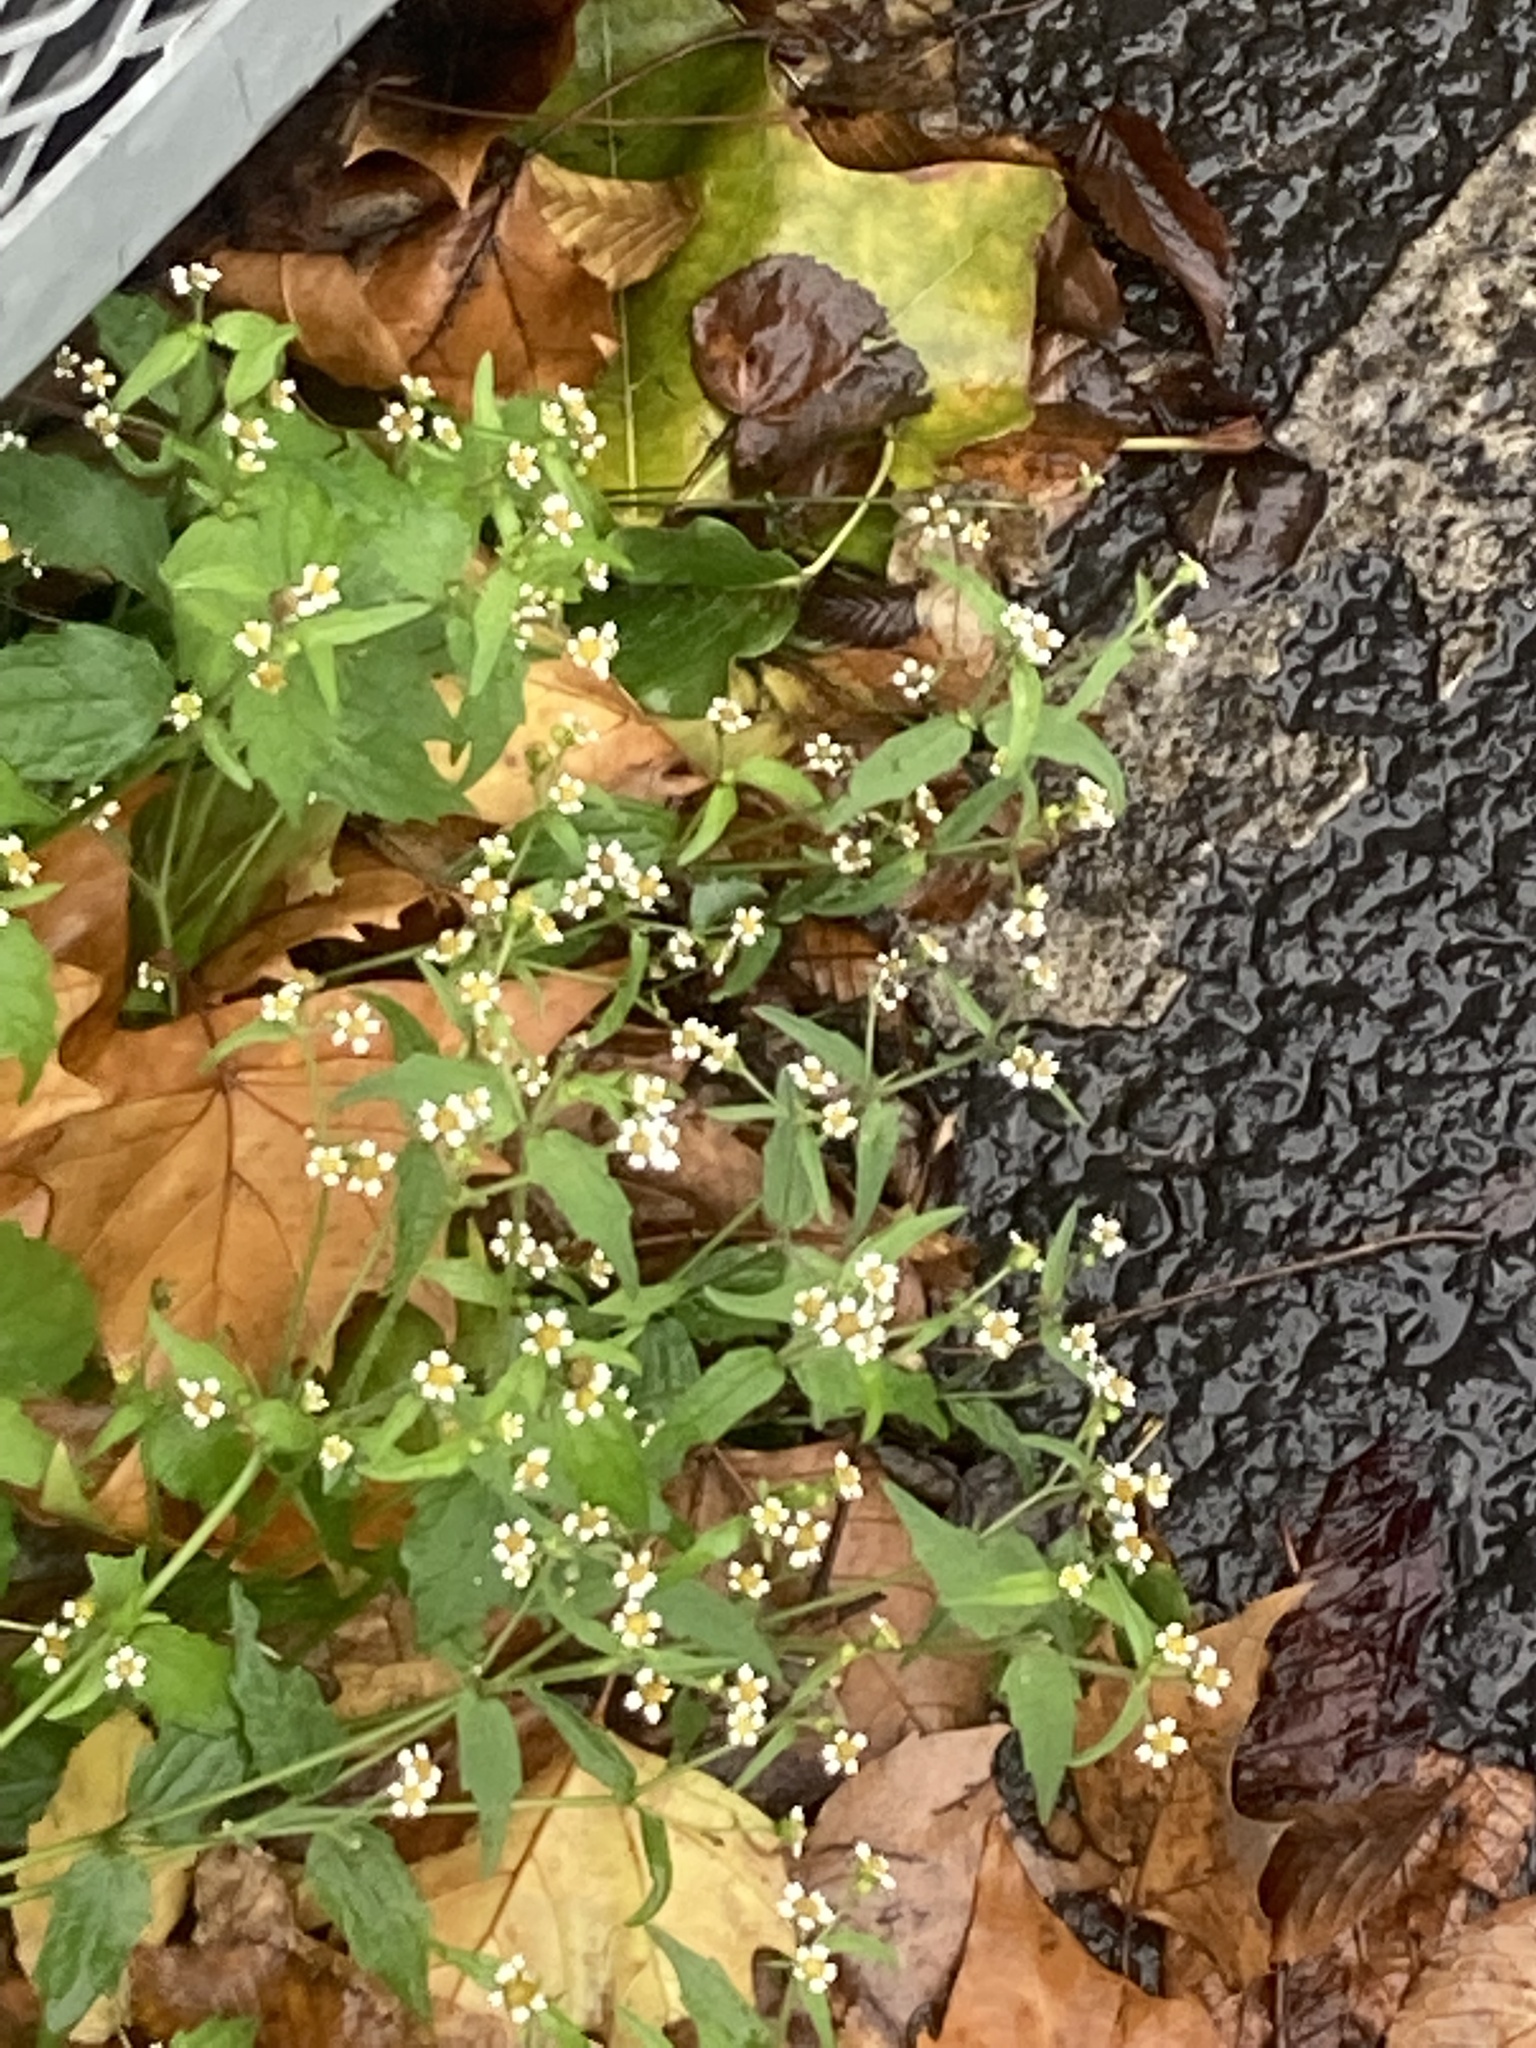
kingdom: Plantae
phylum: Tracheophyta
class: Magnoliopsida
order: Asterales
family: Asteraceae
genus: Galinsoga
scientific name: Galinsoga quadriradiata
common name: Shaggy soldier
